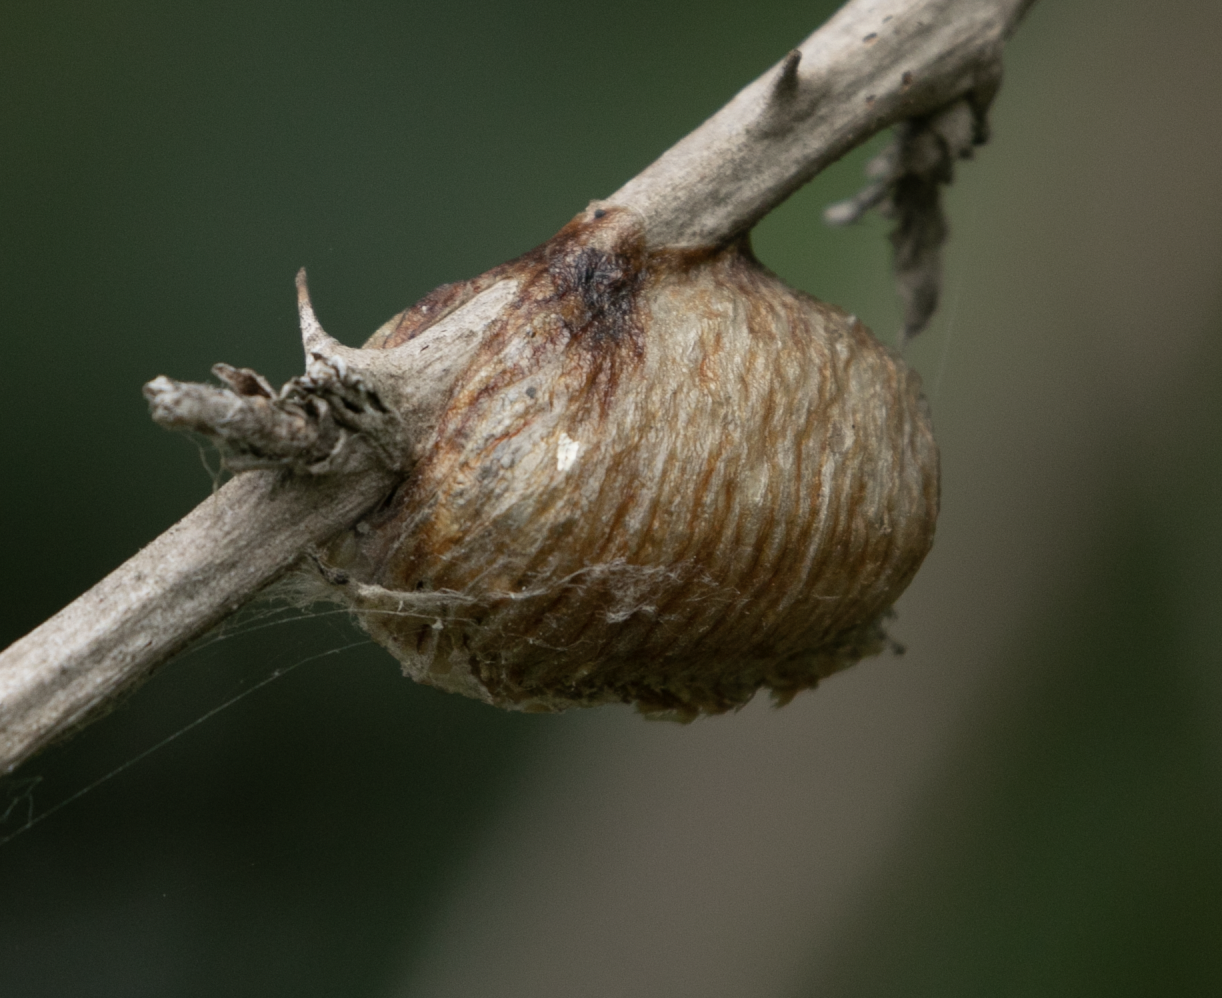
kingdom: Animalia
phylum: Arthropoda
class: Insecta
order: Mantodea
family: Mantidae
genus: Hierodula
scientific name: Hierodula transcaucasica
